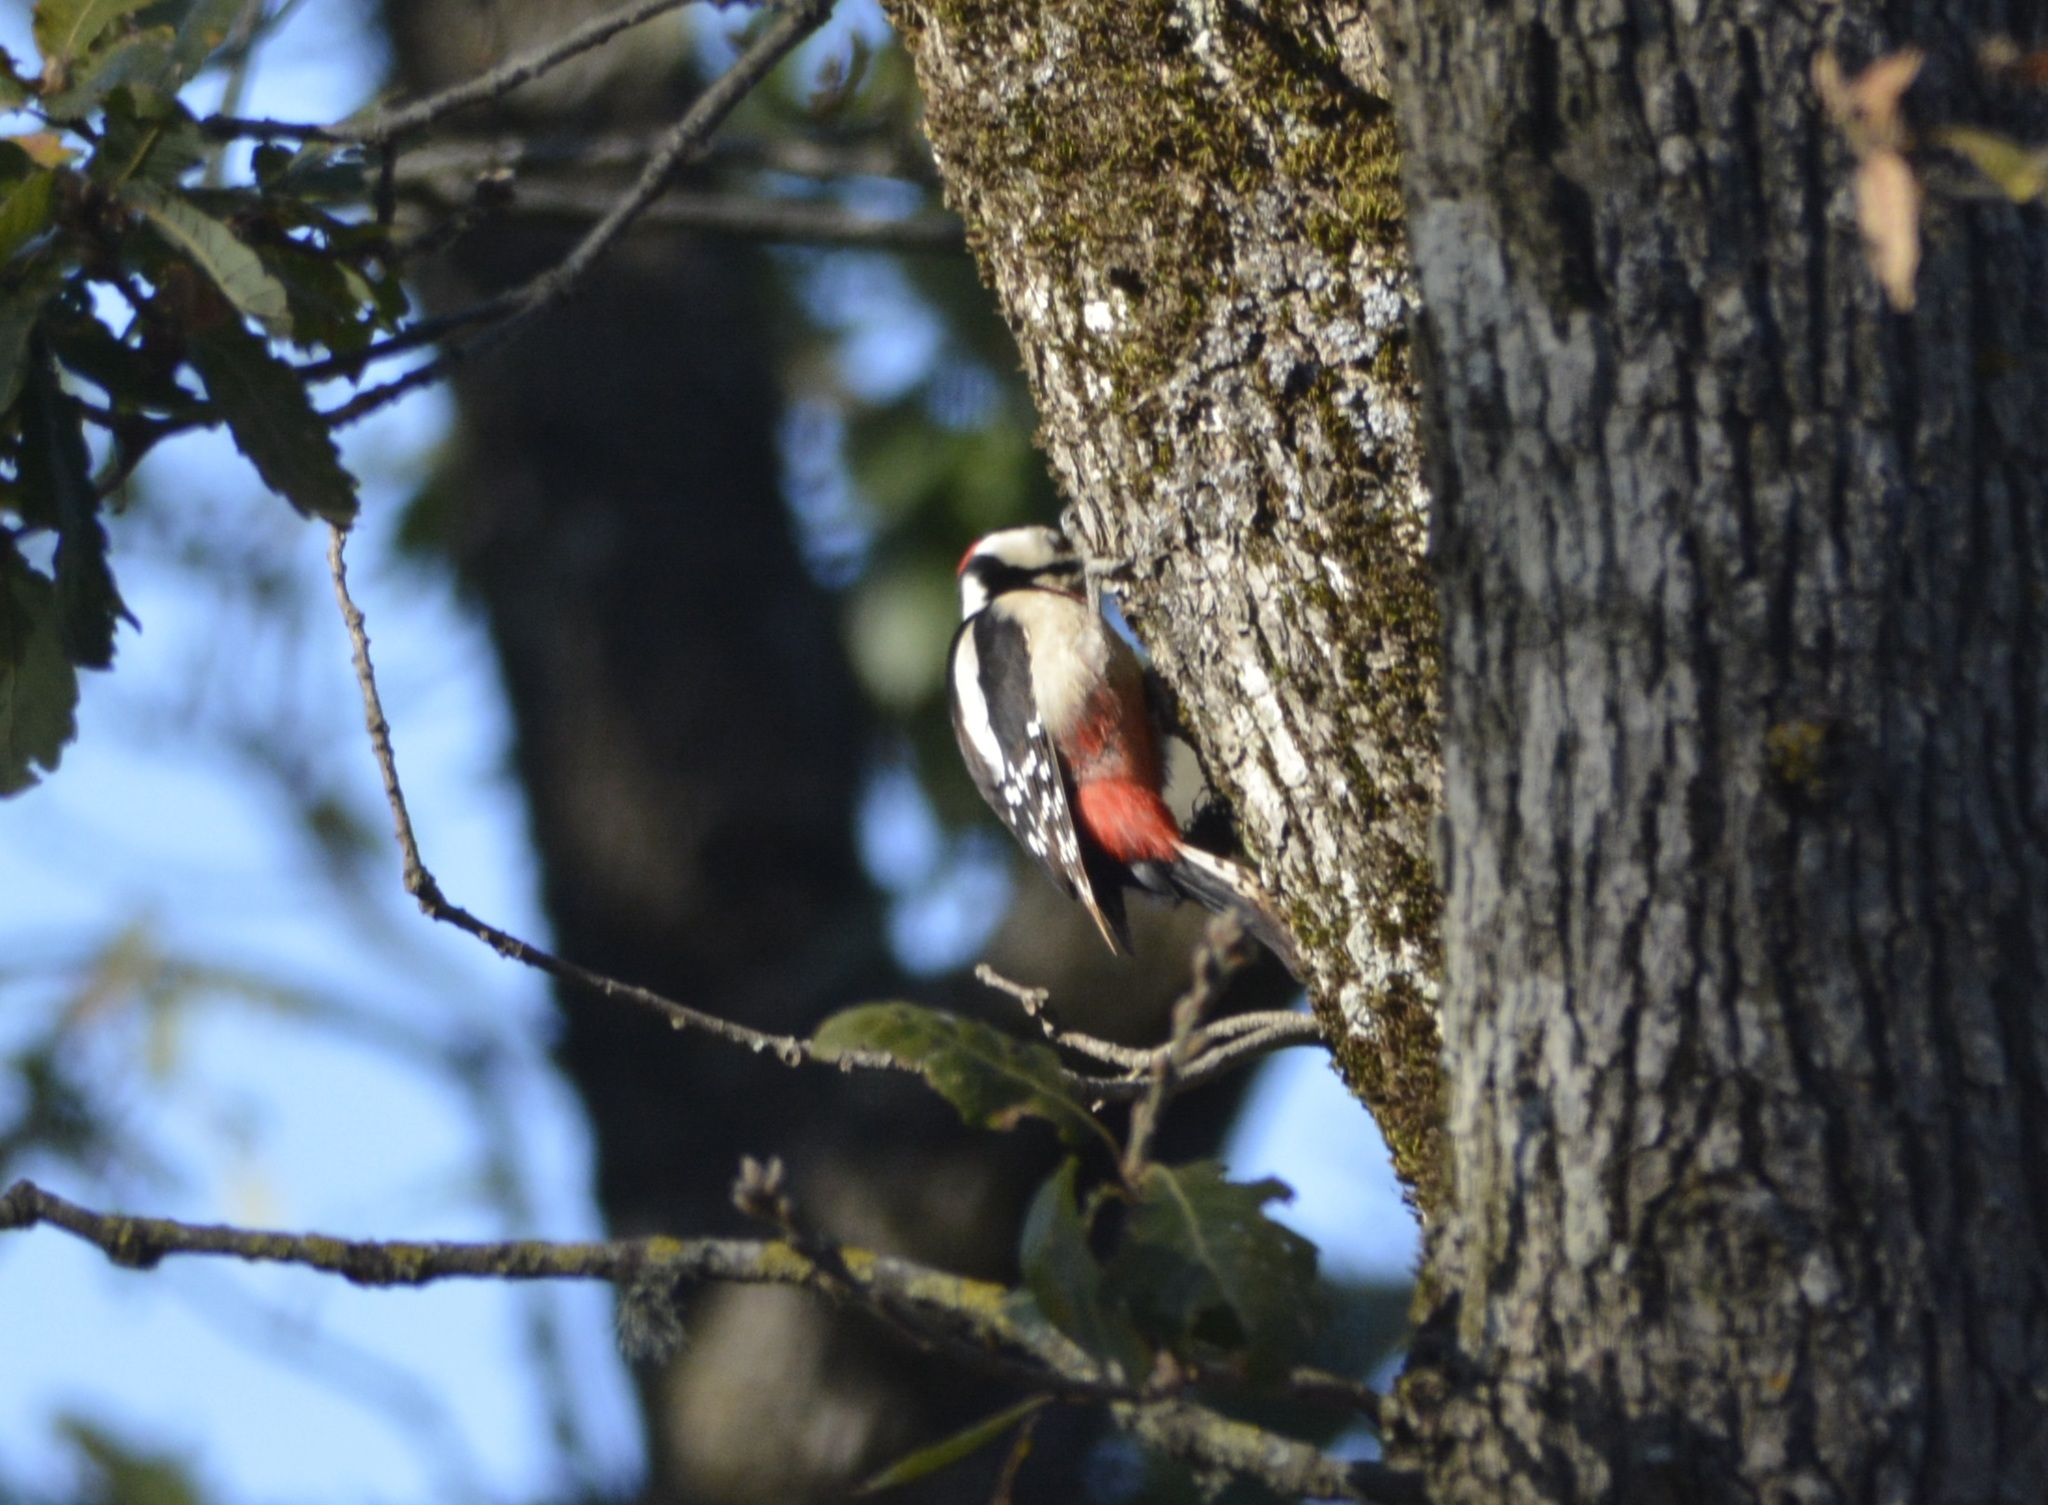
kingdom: Animalia
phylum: Chordata
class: Aves
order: Piciformes
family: Picidae
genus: Dendrocopos
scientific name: Dendrocopos major
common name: Great spotted woodpecker
